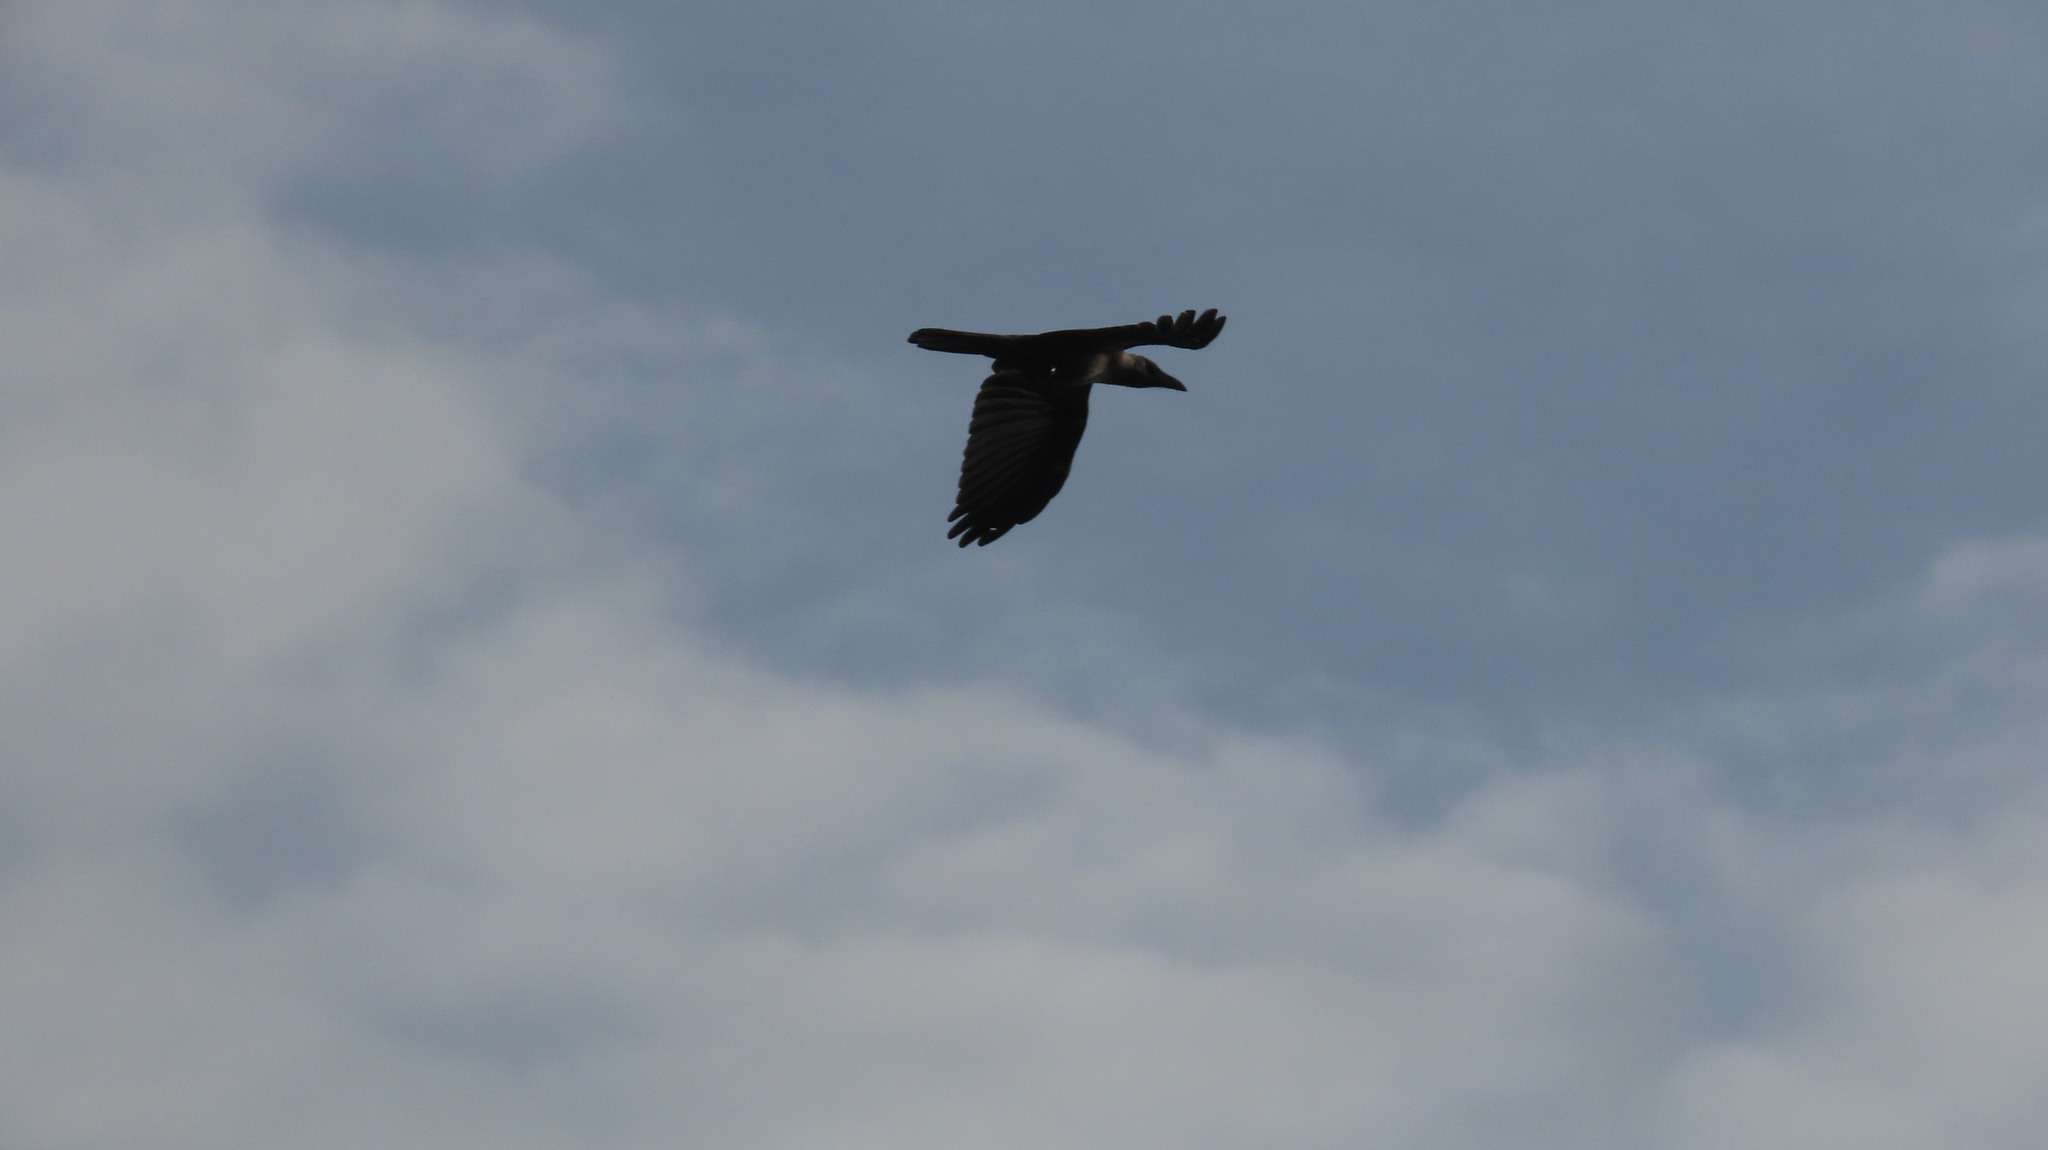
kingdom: Animalia
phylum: Chordata
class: Aves
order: Passeriformes
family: Corvidae
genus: Corvus
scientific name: Corvus splendens
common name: House crow
